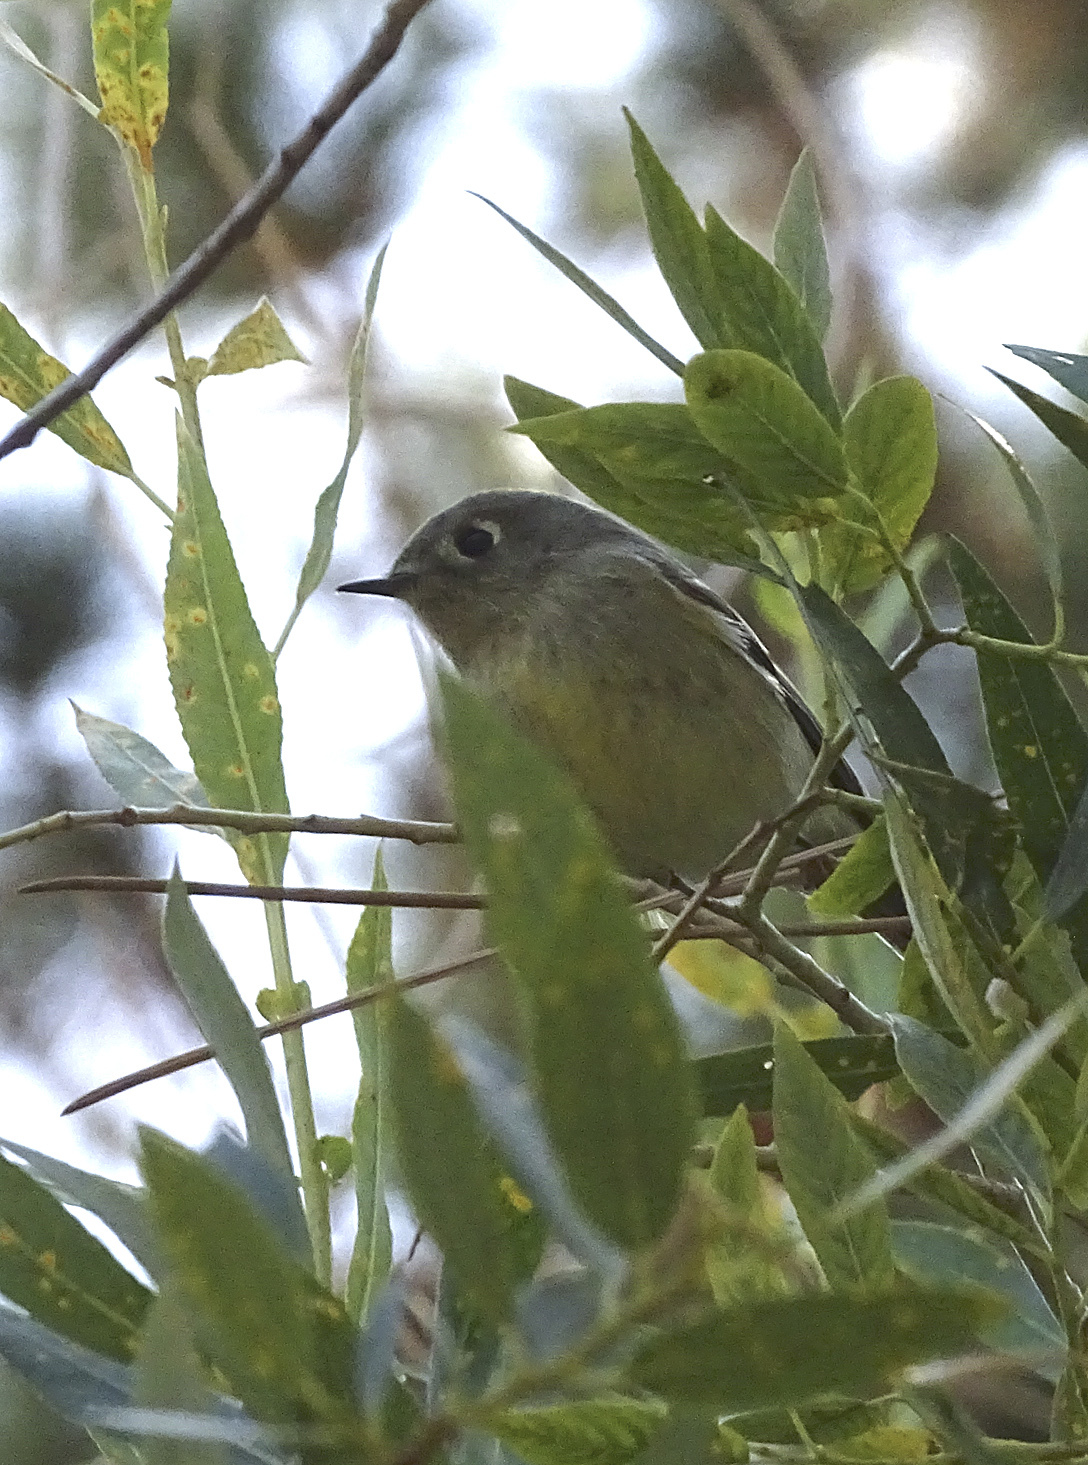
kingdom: Animalia
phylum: Chordata
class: Aves
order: Passeriformes
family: Regulidae
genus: Regulus
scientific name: Regulus calendula
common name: Ruby-crowned kinglet
